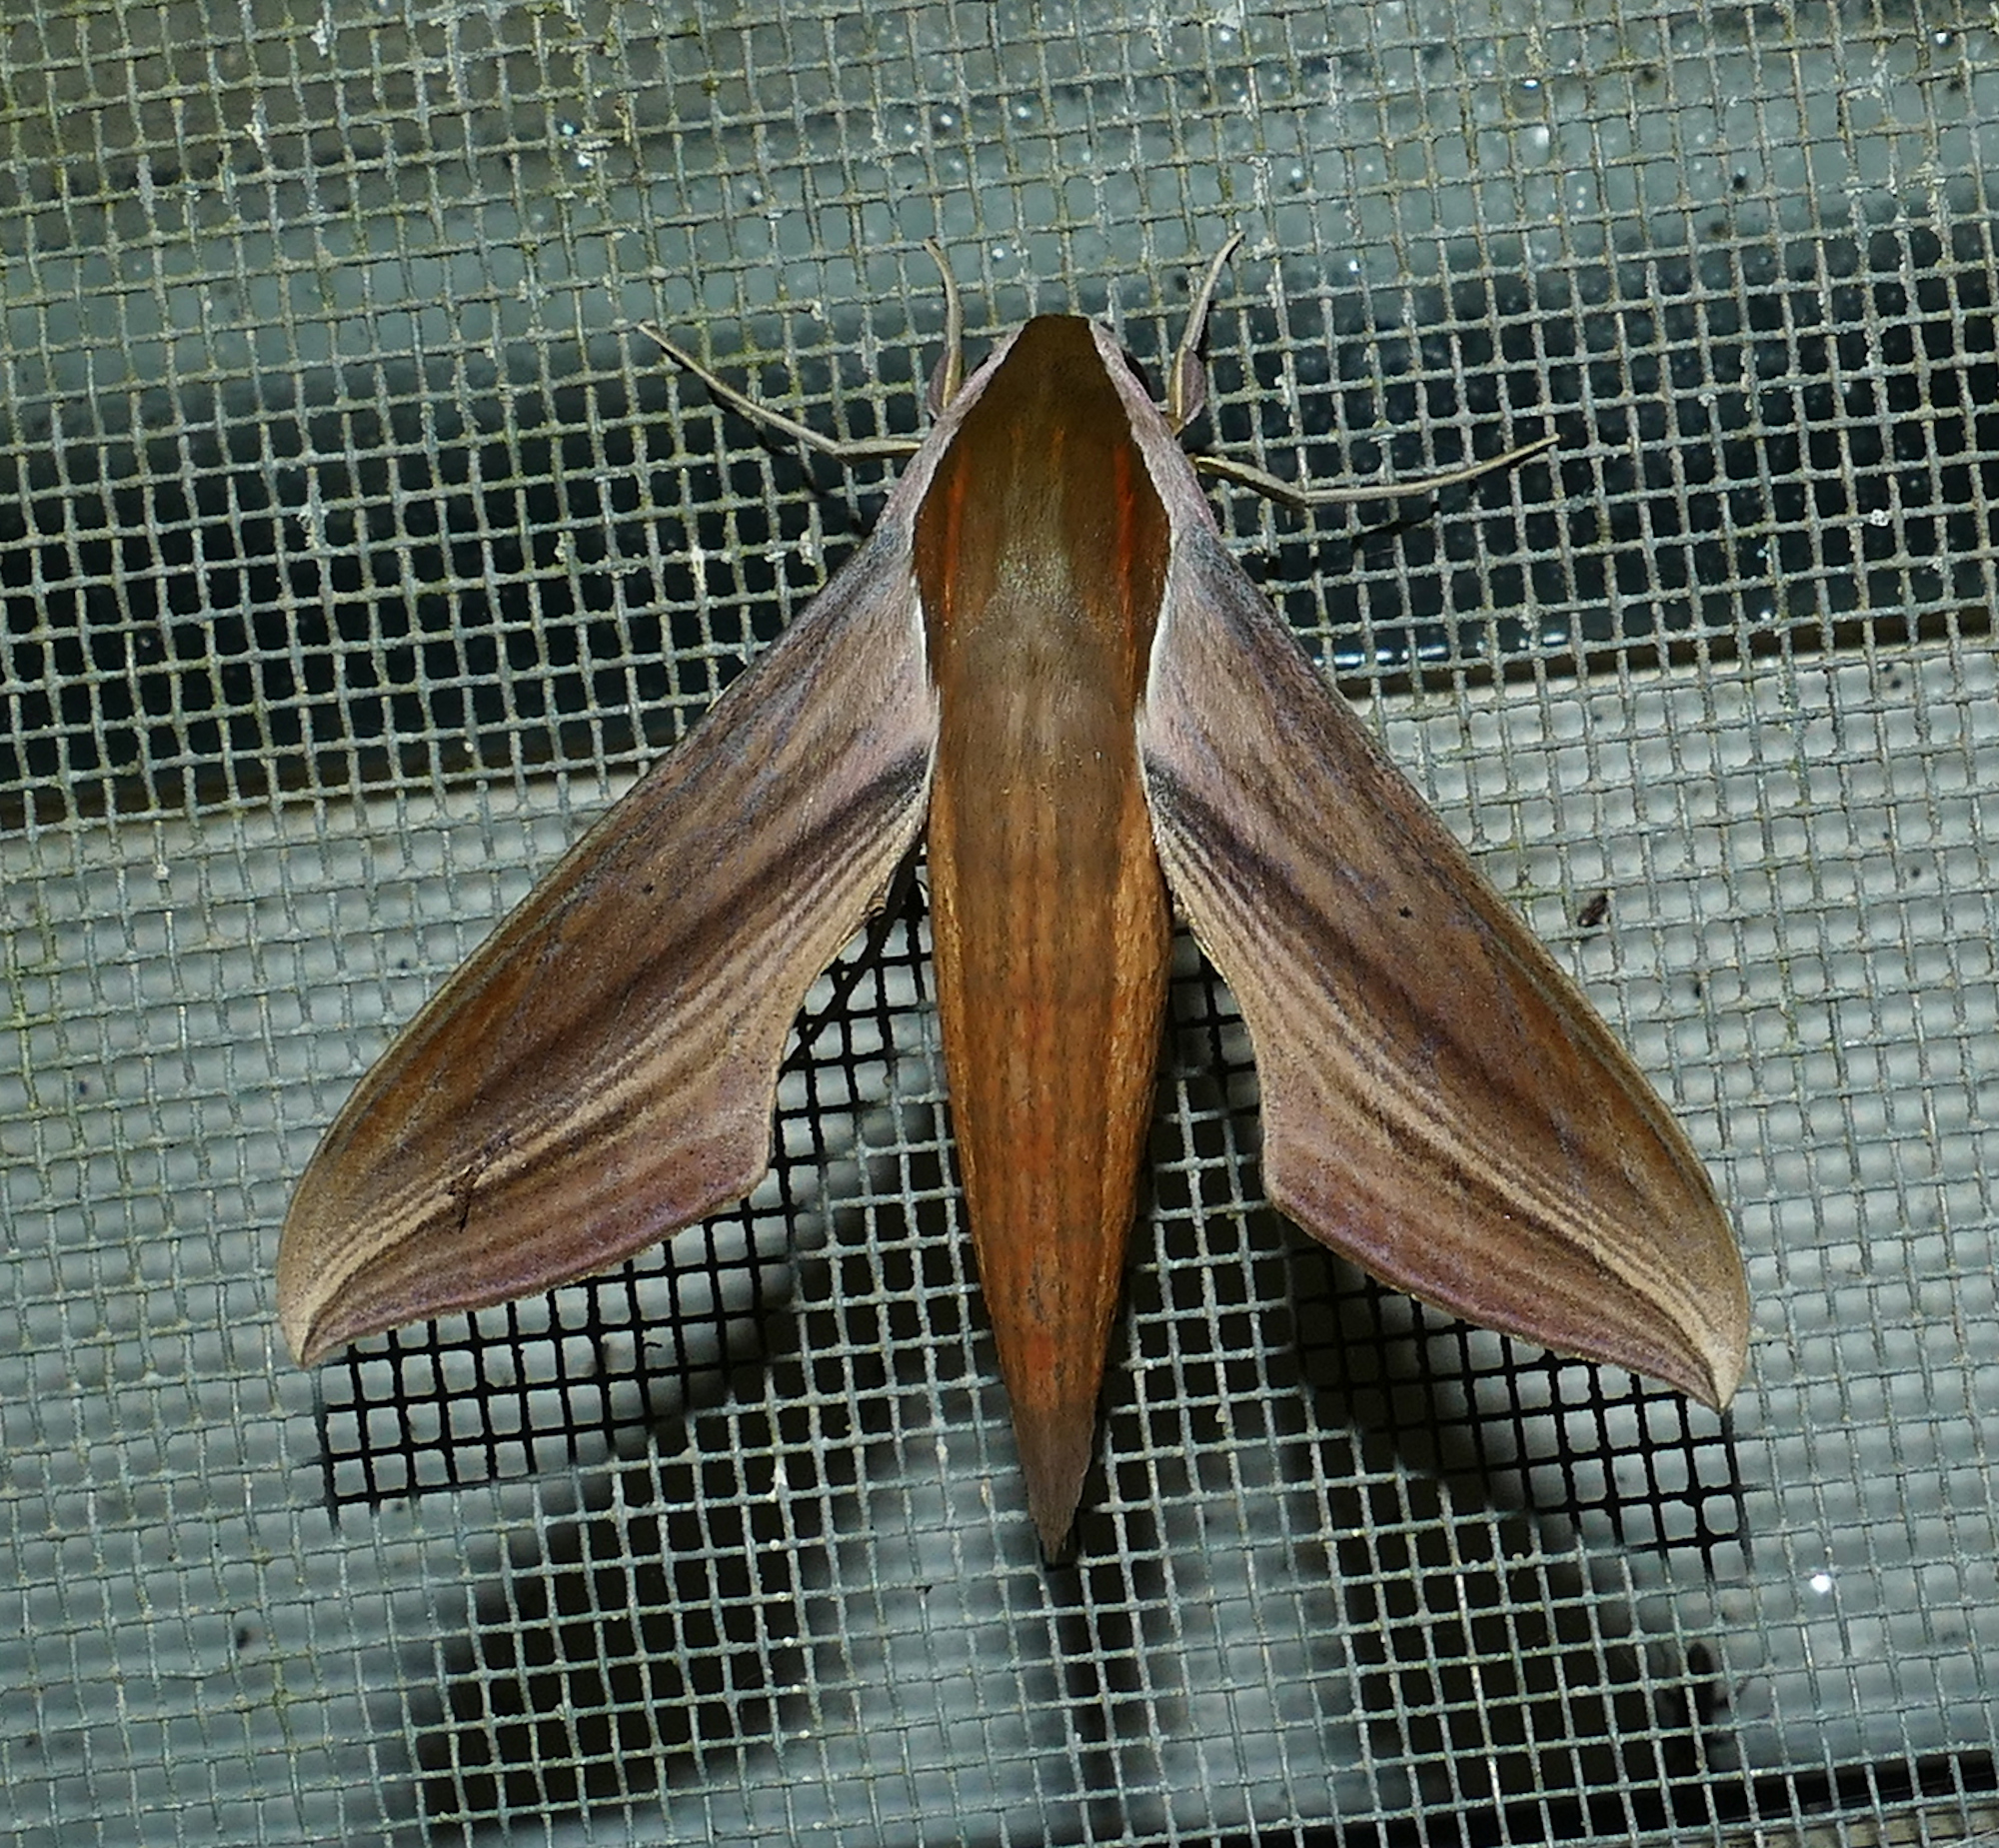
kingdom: Animalia
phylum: Arthropoda
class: Insecta
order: Lepidoptera
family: Sphingidae
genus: Xylophanes
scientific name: Xylophanes tersa
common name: Tersa sphinx
